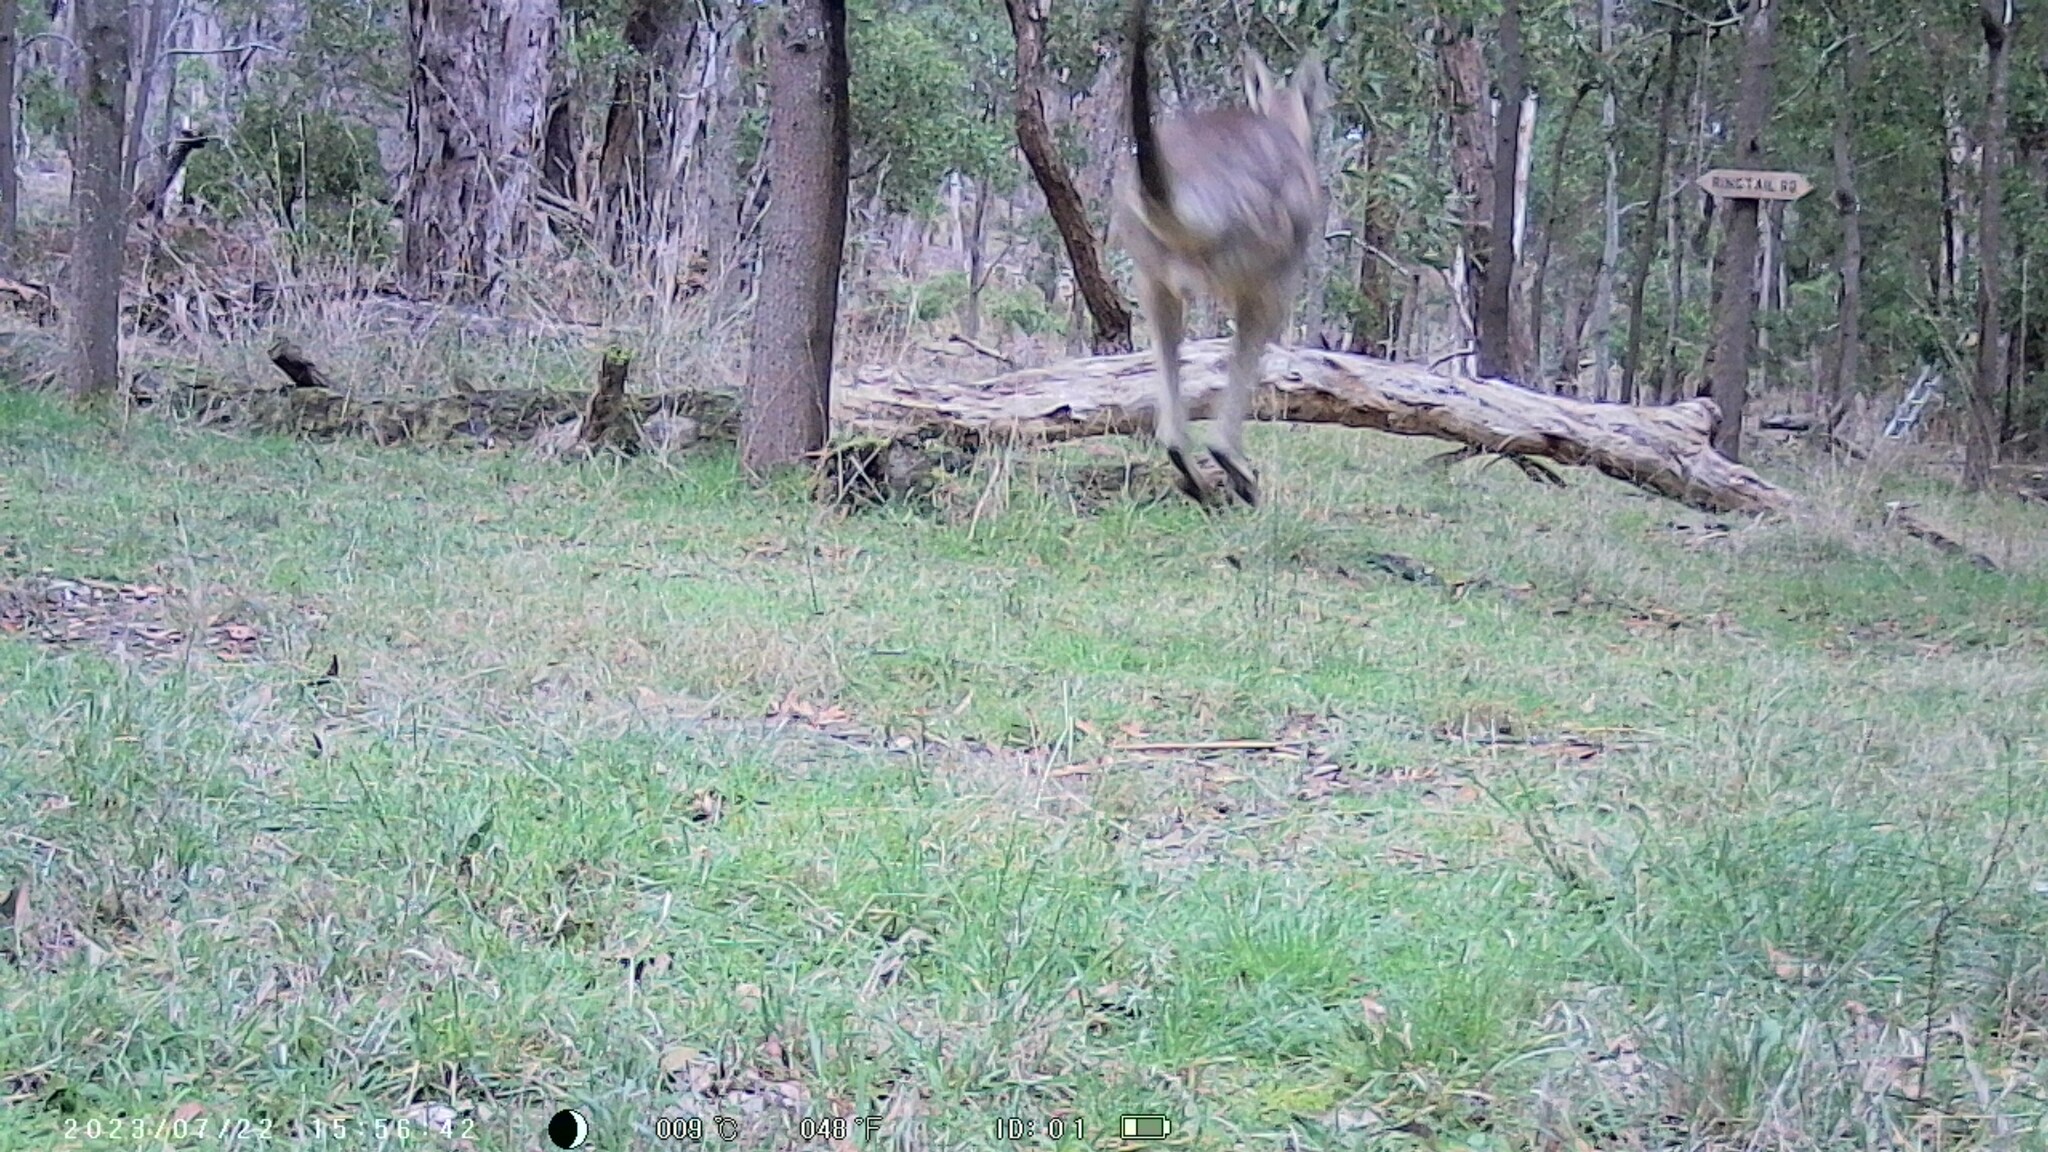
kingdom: Animalia
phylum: Chordata
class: Mammalia
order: Diprotodontia
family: Macropodidae
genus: Macropus
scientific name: Macropus giganteus
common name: Eastern grey kangaroo
